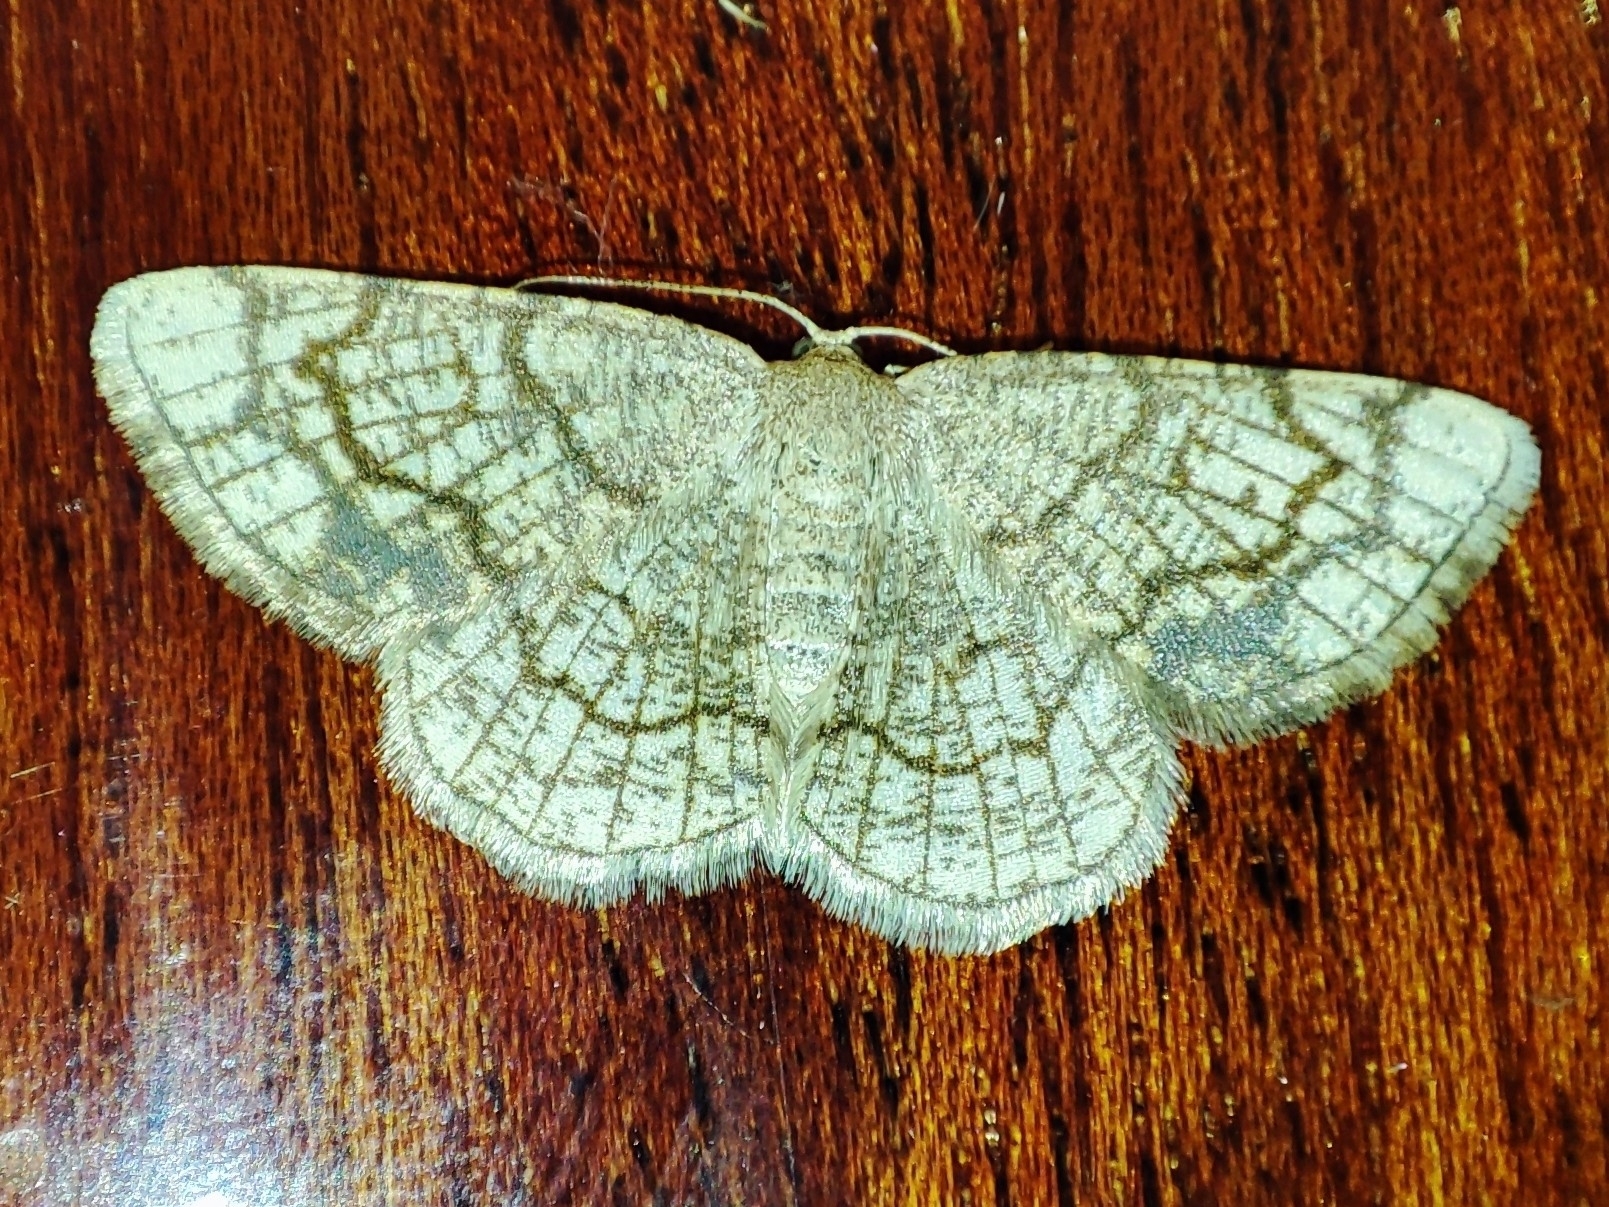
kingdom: Animalia
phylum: Arthropoda
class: Insecta
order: Lepidoptera
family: Geometridae
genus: Stegania
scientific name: Stegania dilectaria
